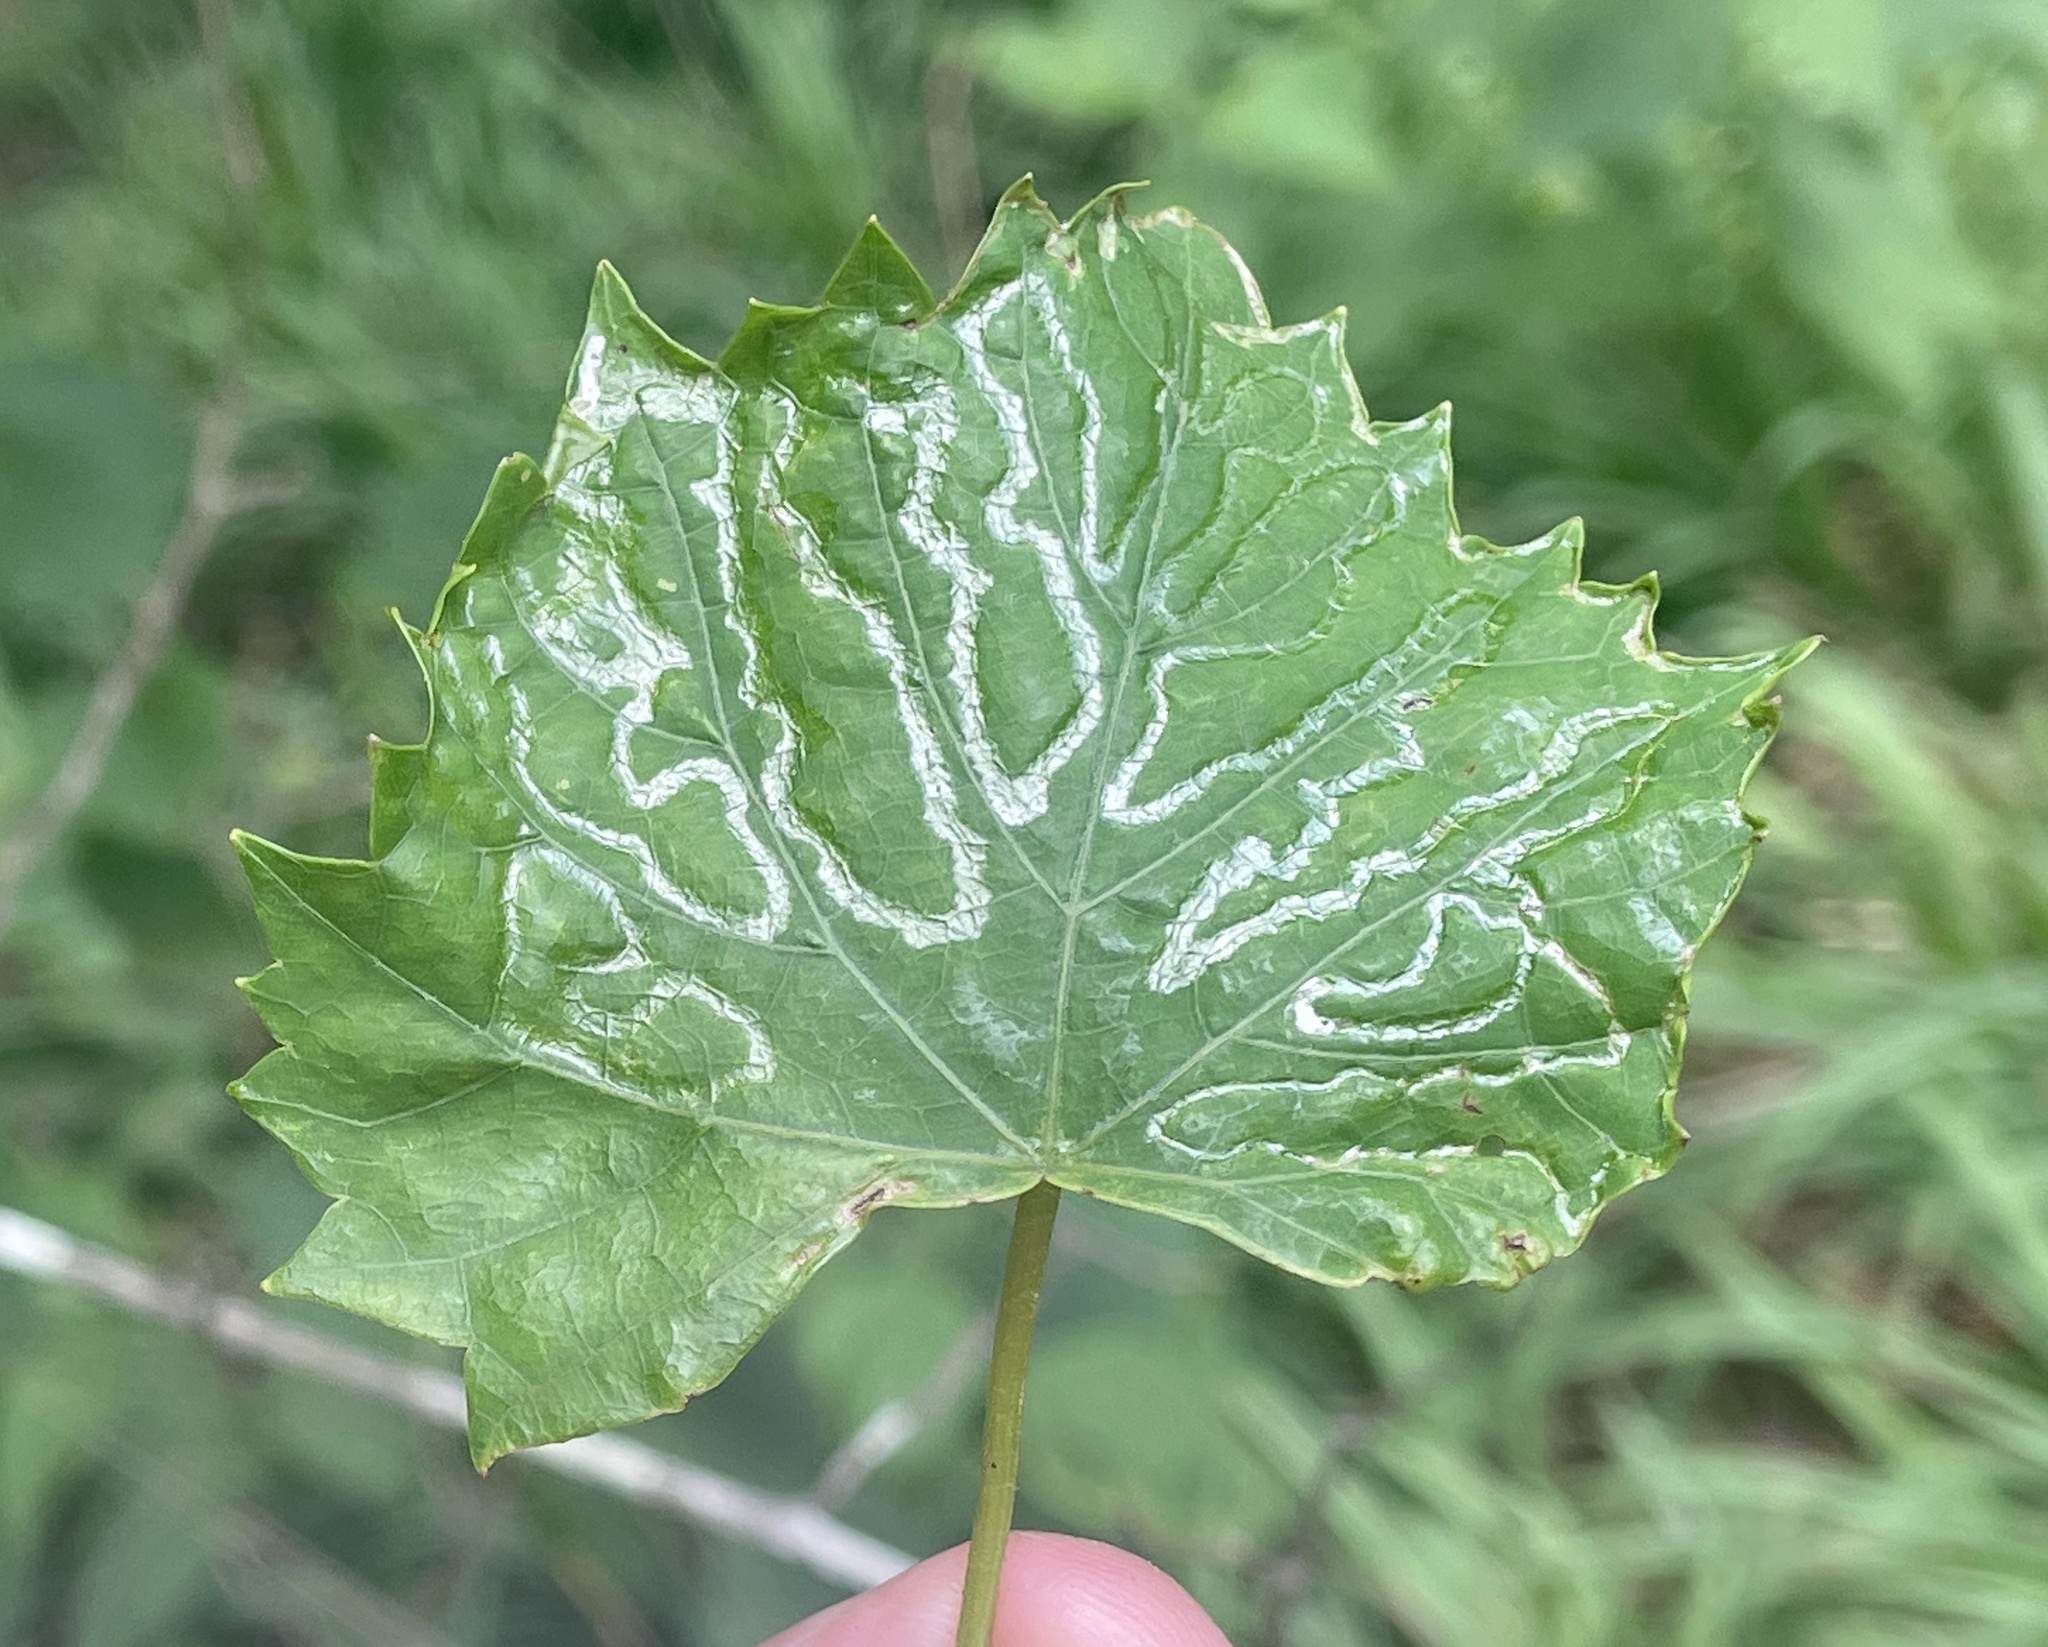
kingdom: Animalia
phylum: Arthropoda
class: Insecta
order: Lepidoptera
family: Gracillariidae
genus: Phyllocnistis
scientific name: Phyllocnistis vitegenella
